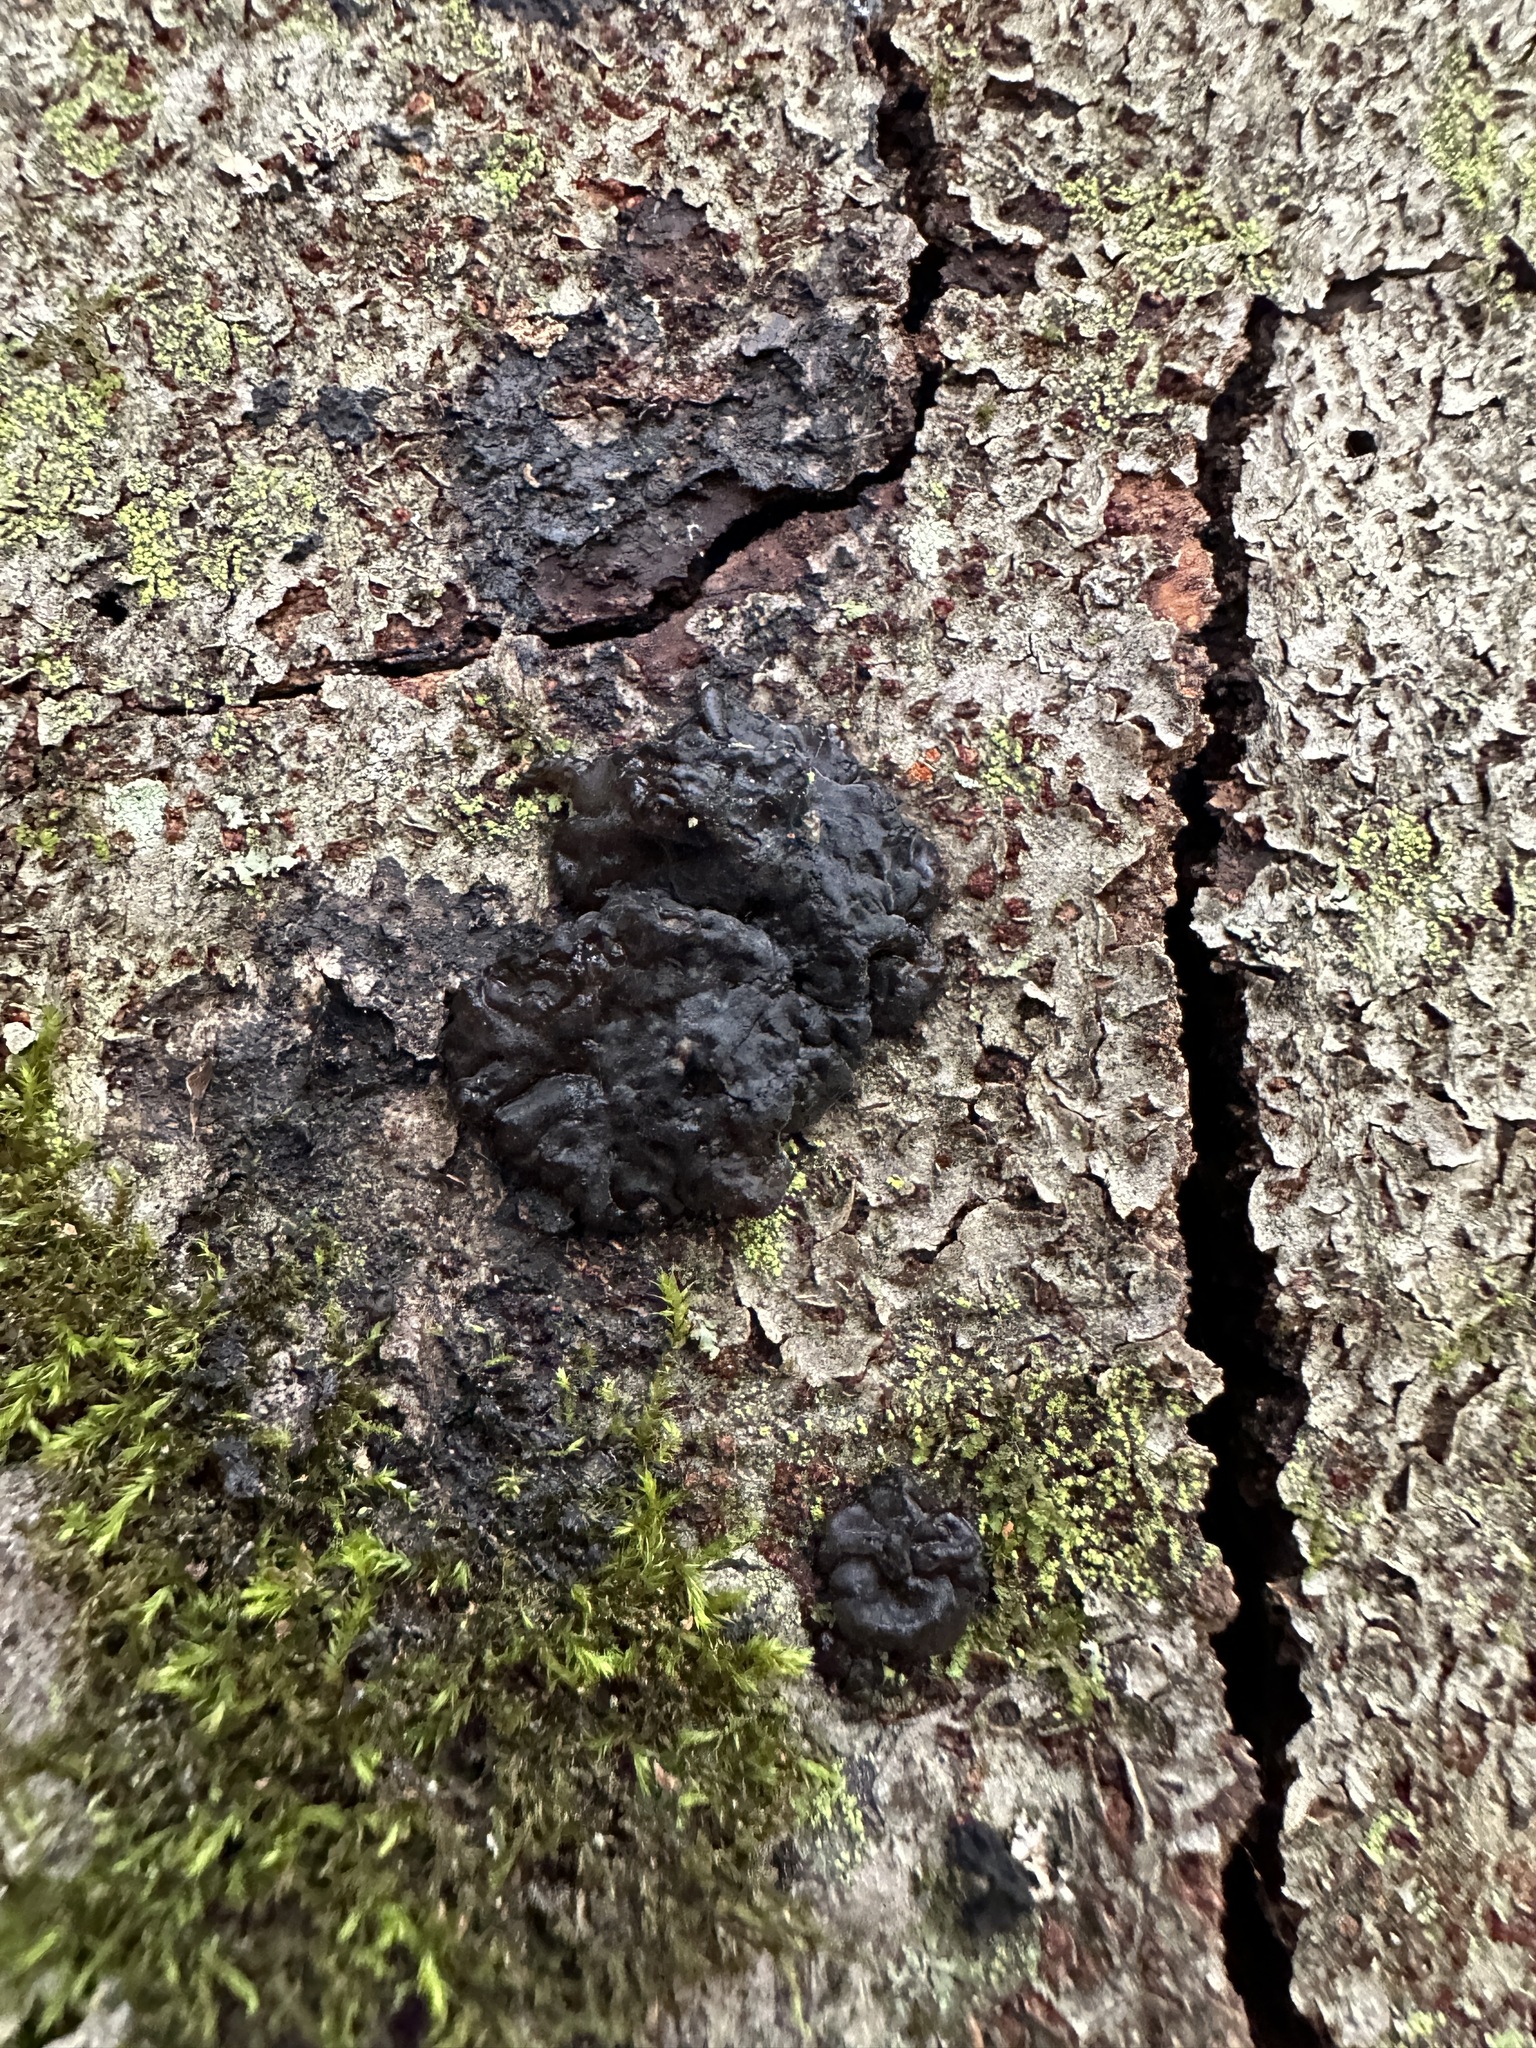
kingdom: Fungi
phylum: Basidiomycota
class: Agaricomycetes
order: Auriculariales
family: Auriculariaceae
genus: Exidia
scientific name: Exidia glandulosa
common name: Witches' butter
